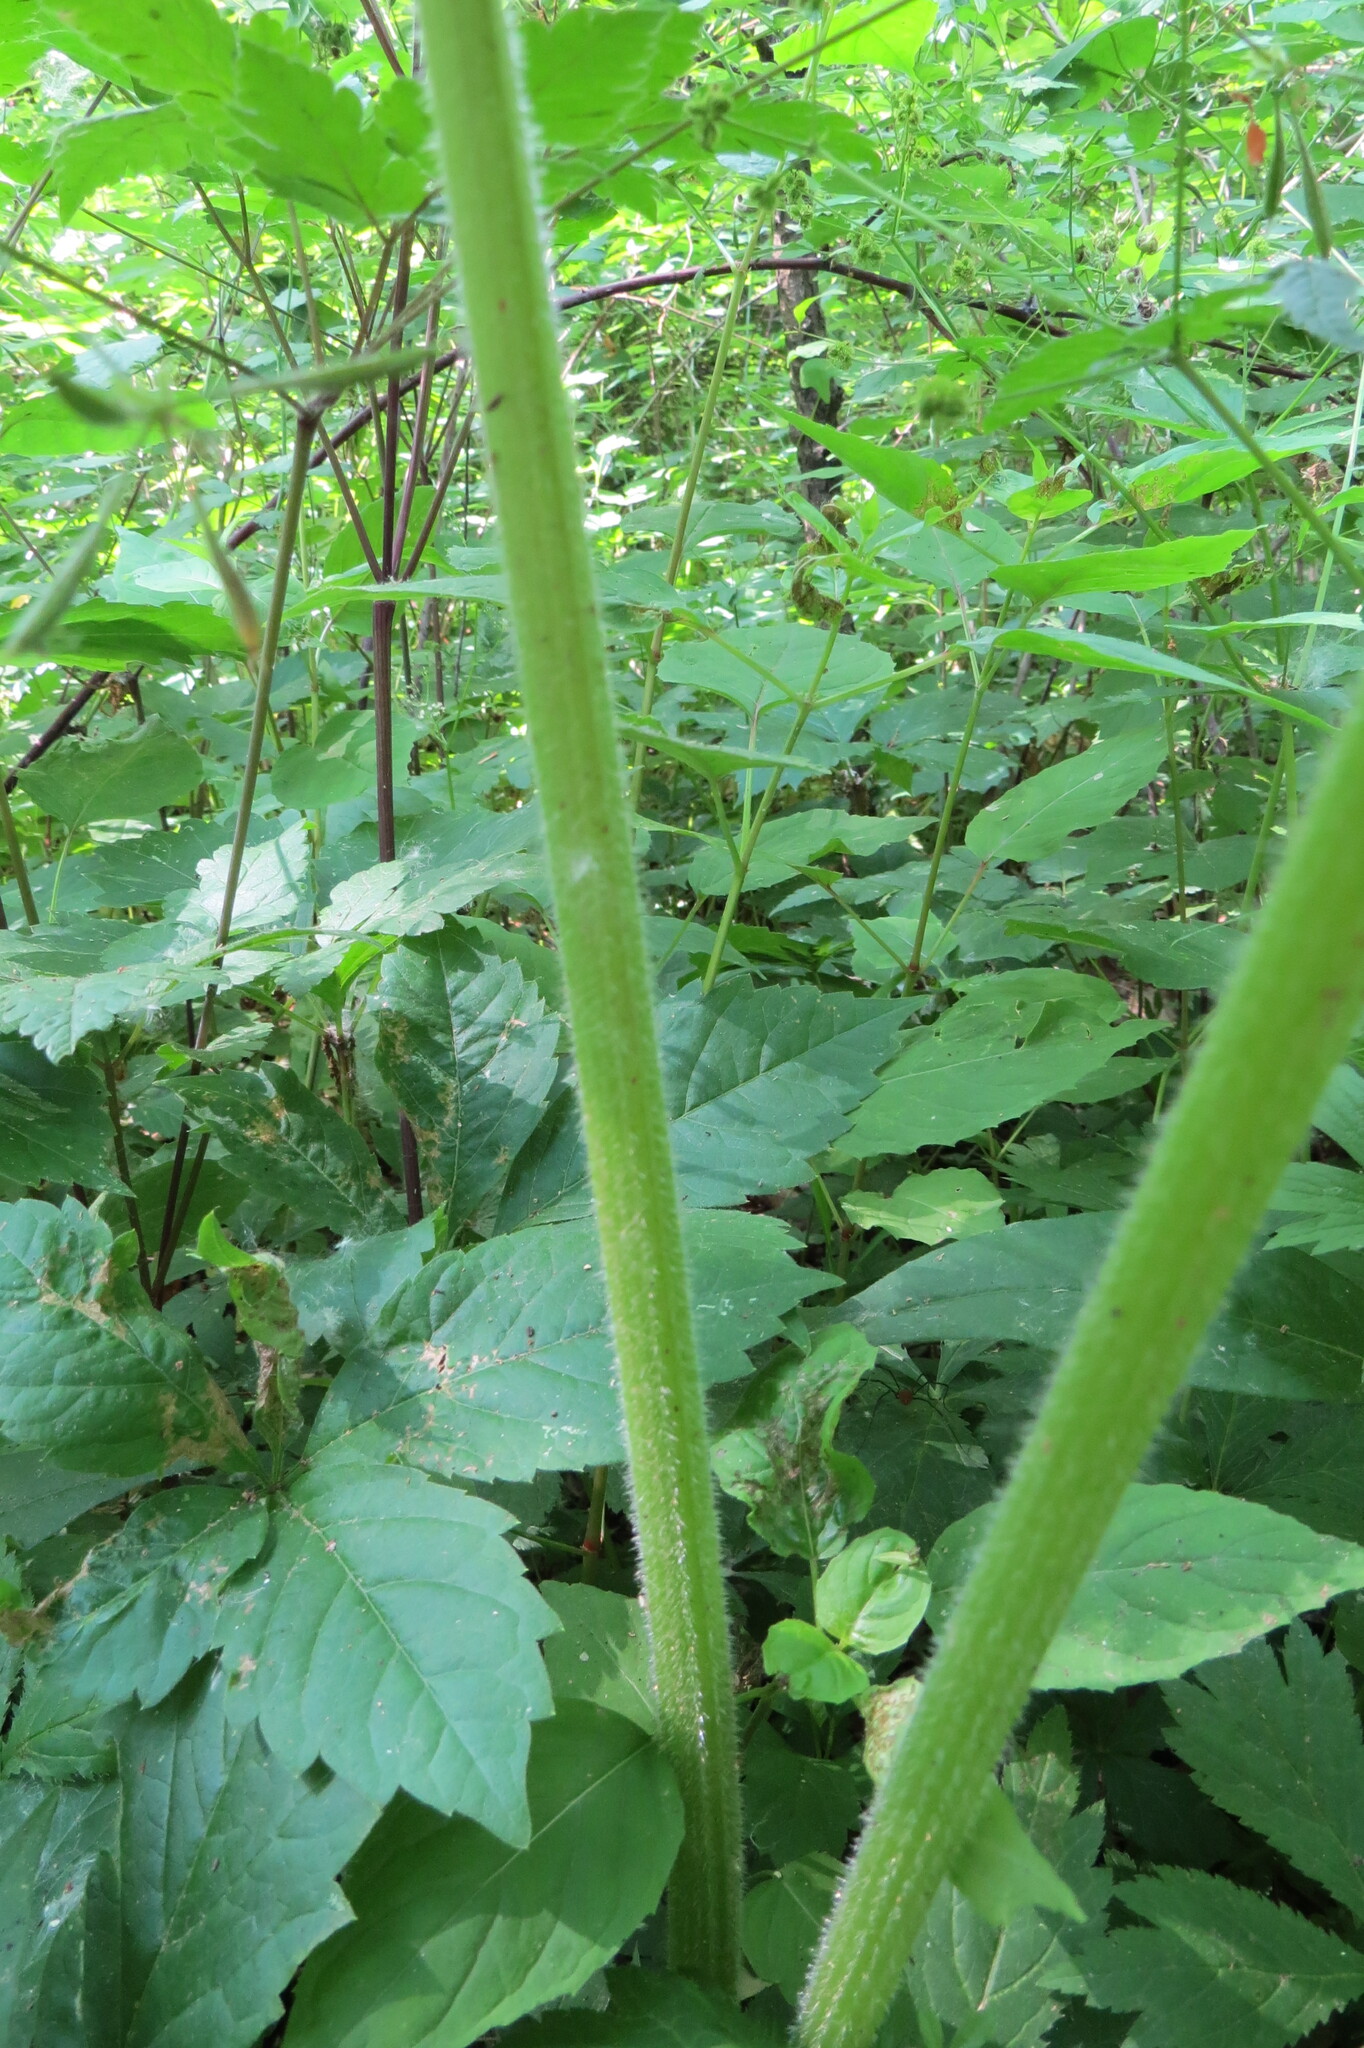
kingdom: Plantae
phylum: Tracheophyta
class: Magnoliopsida
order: Apiales
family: Apiaceae
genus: Heracleum
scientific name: Heracleum maximum
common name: American cow parsnip
